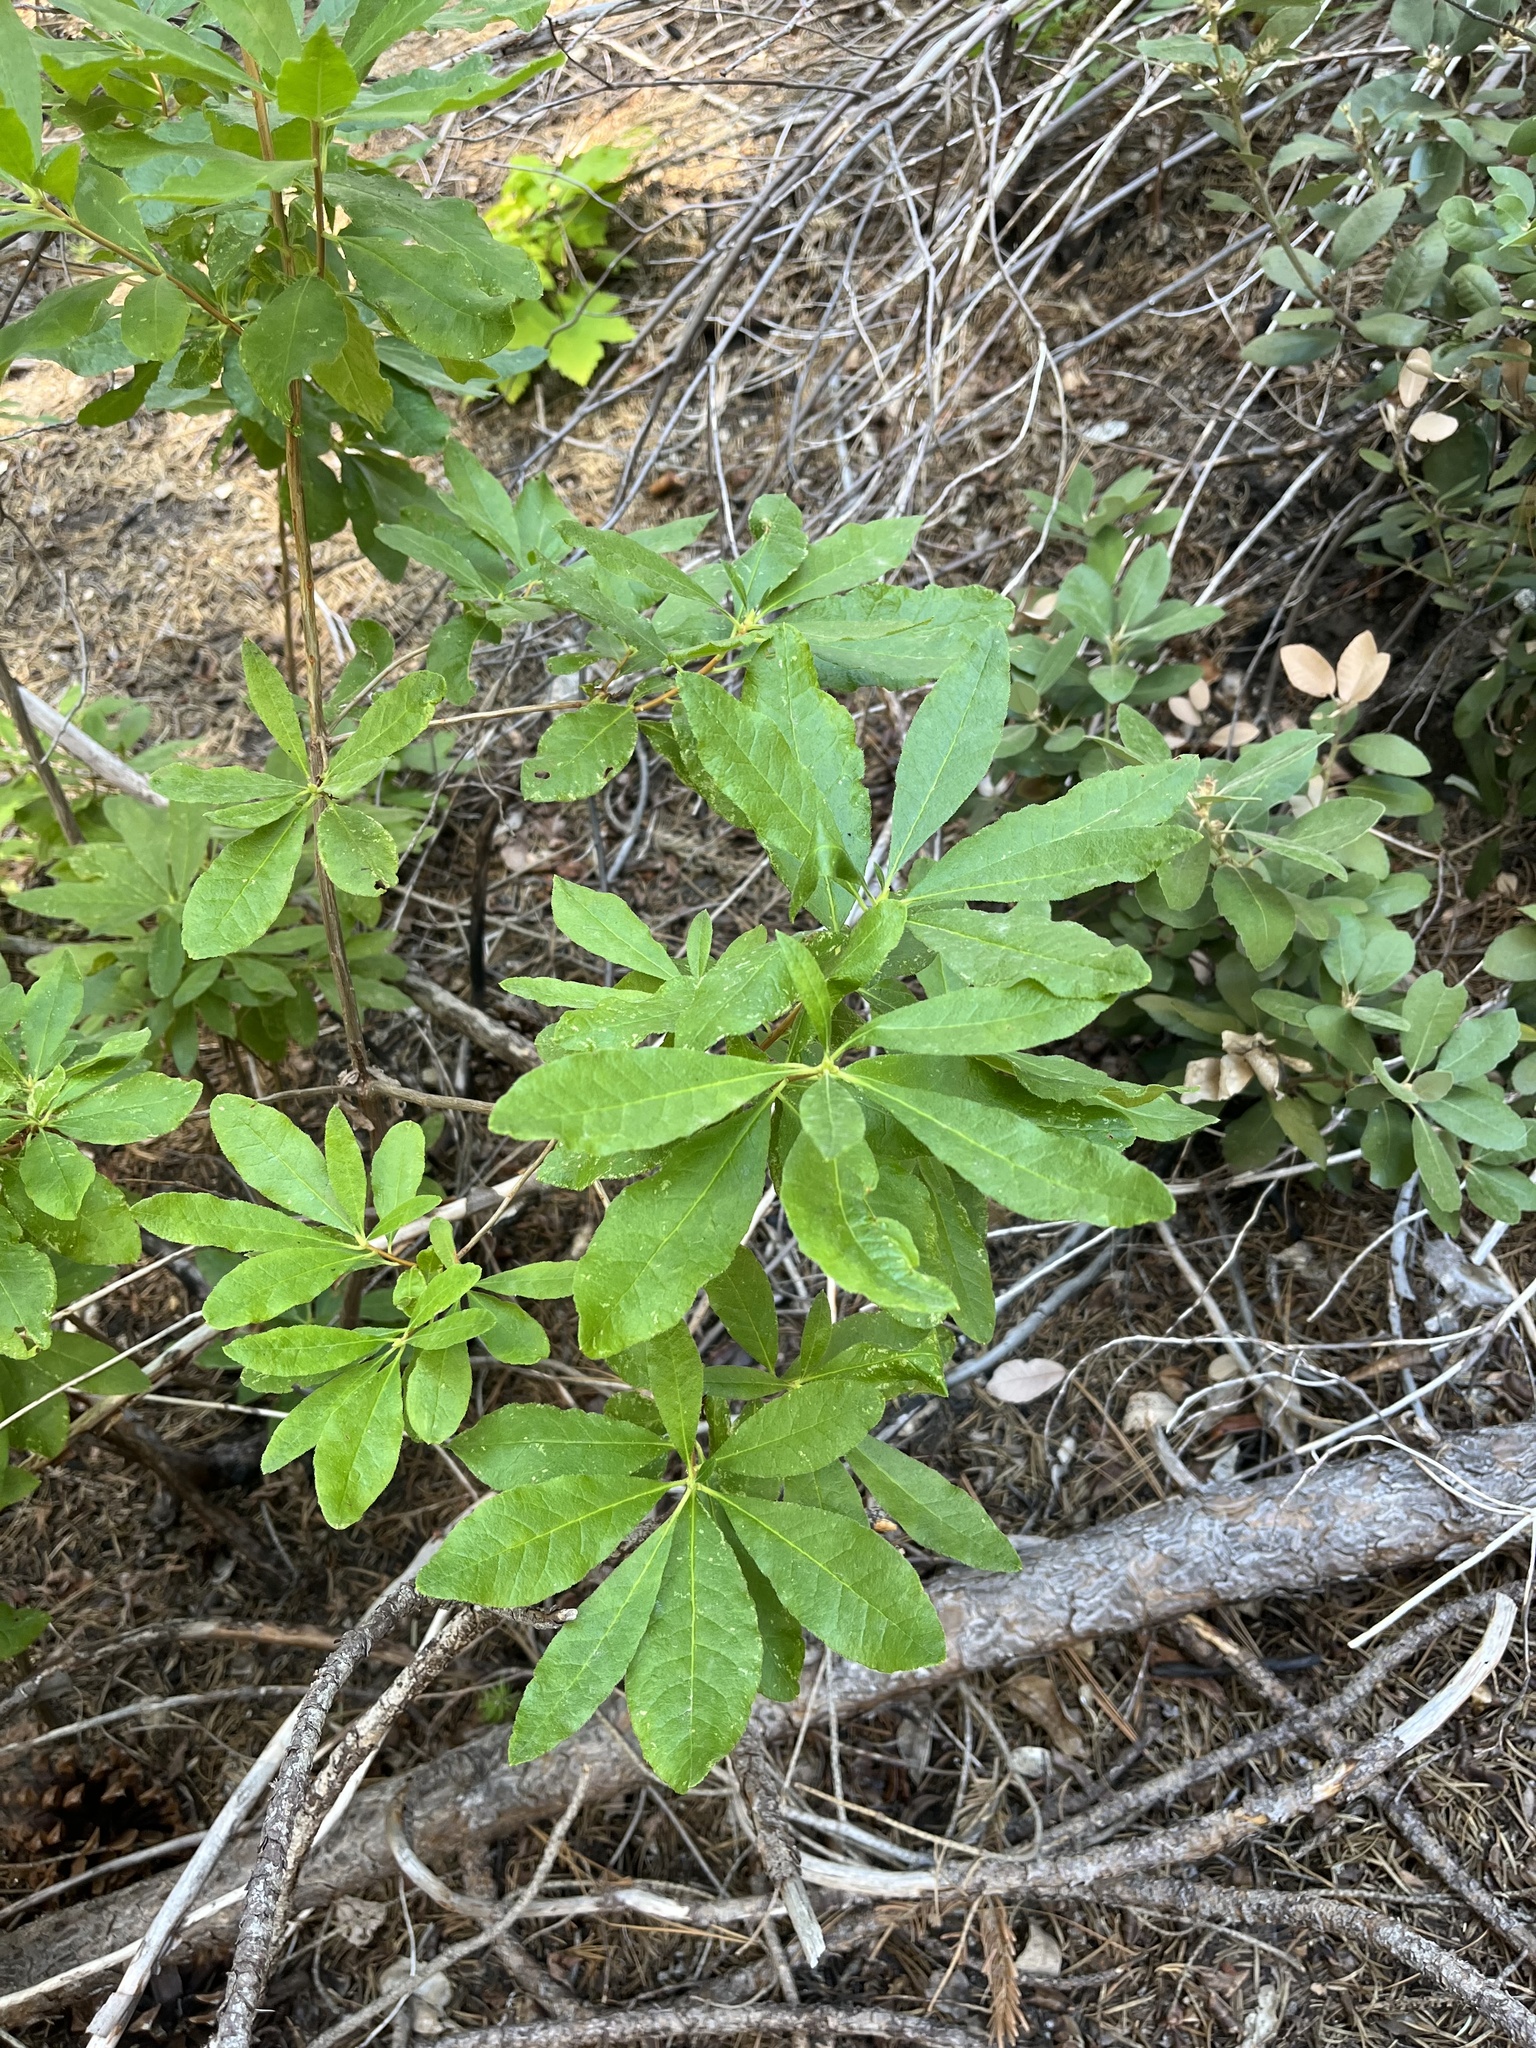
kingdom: Plantae
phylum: Tracheophyta
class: Magnoliopsida
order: Ericales
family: Ericaceae
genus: Rhododendron
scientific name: Rhododendron occidentale
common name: Western azalea
